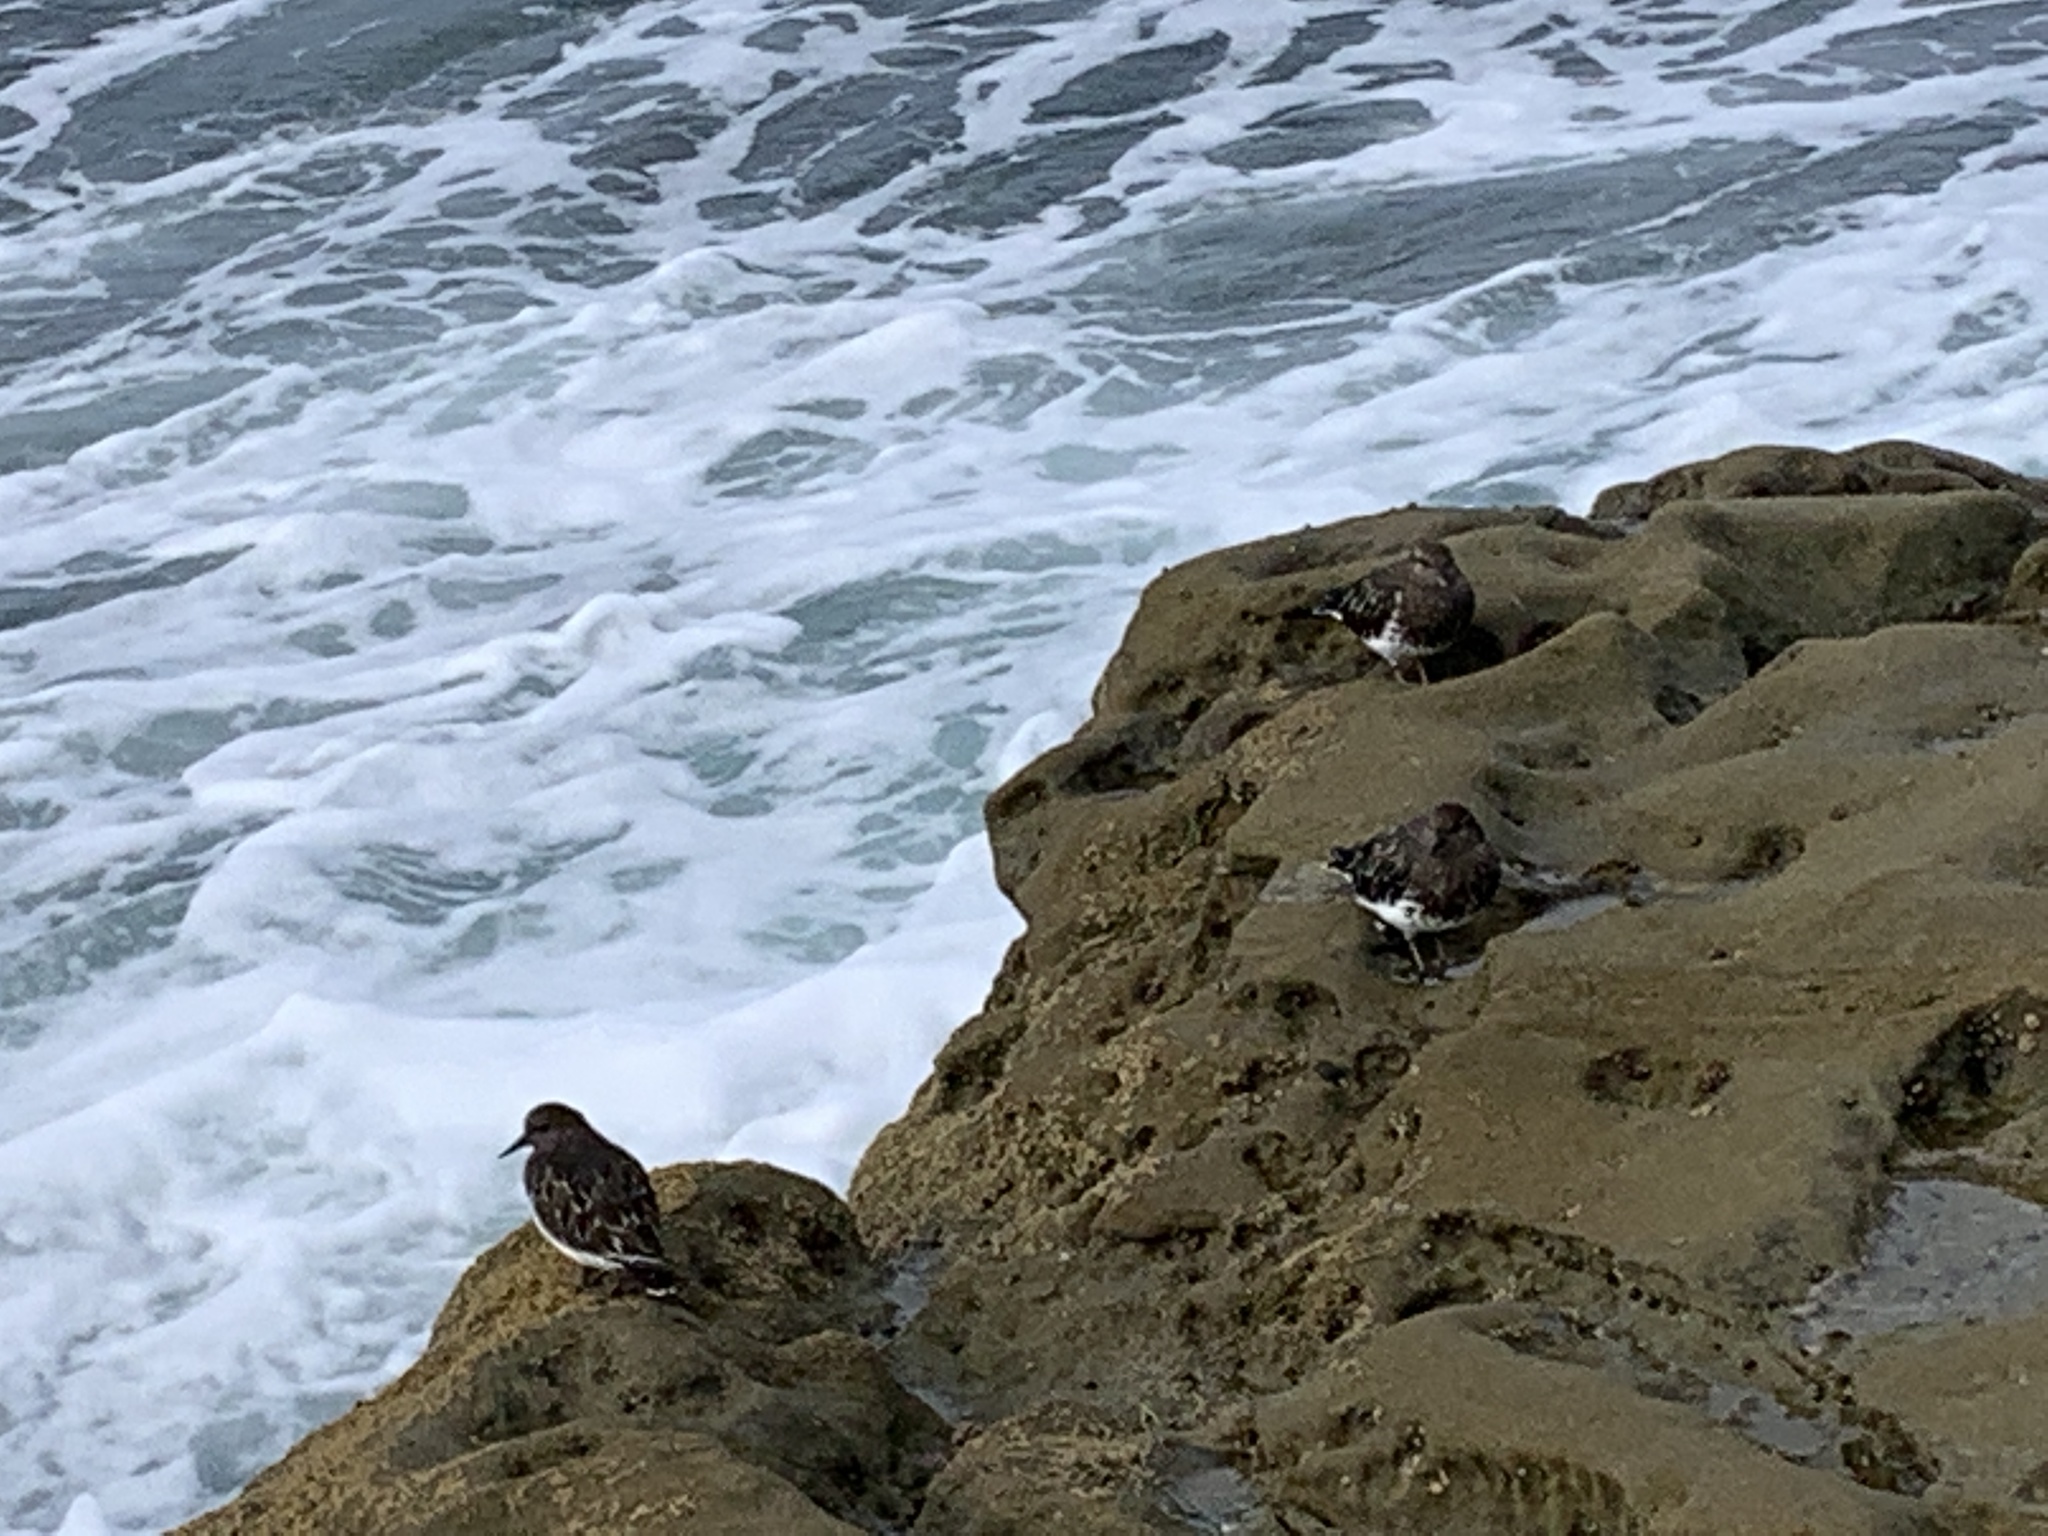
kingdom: Animalia
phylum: Chordata
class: Aves
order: Charadriiformes
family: Scolopacidae
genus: Arenaria
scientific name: Arenaria melanocephala
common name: Black turnstone
